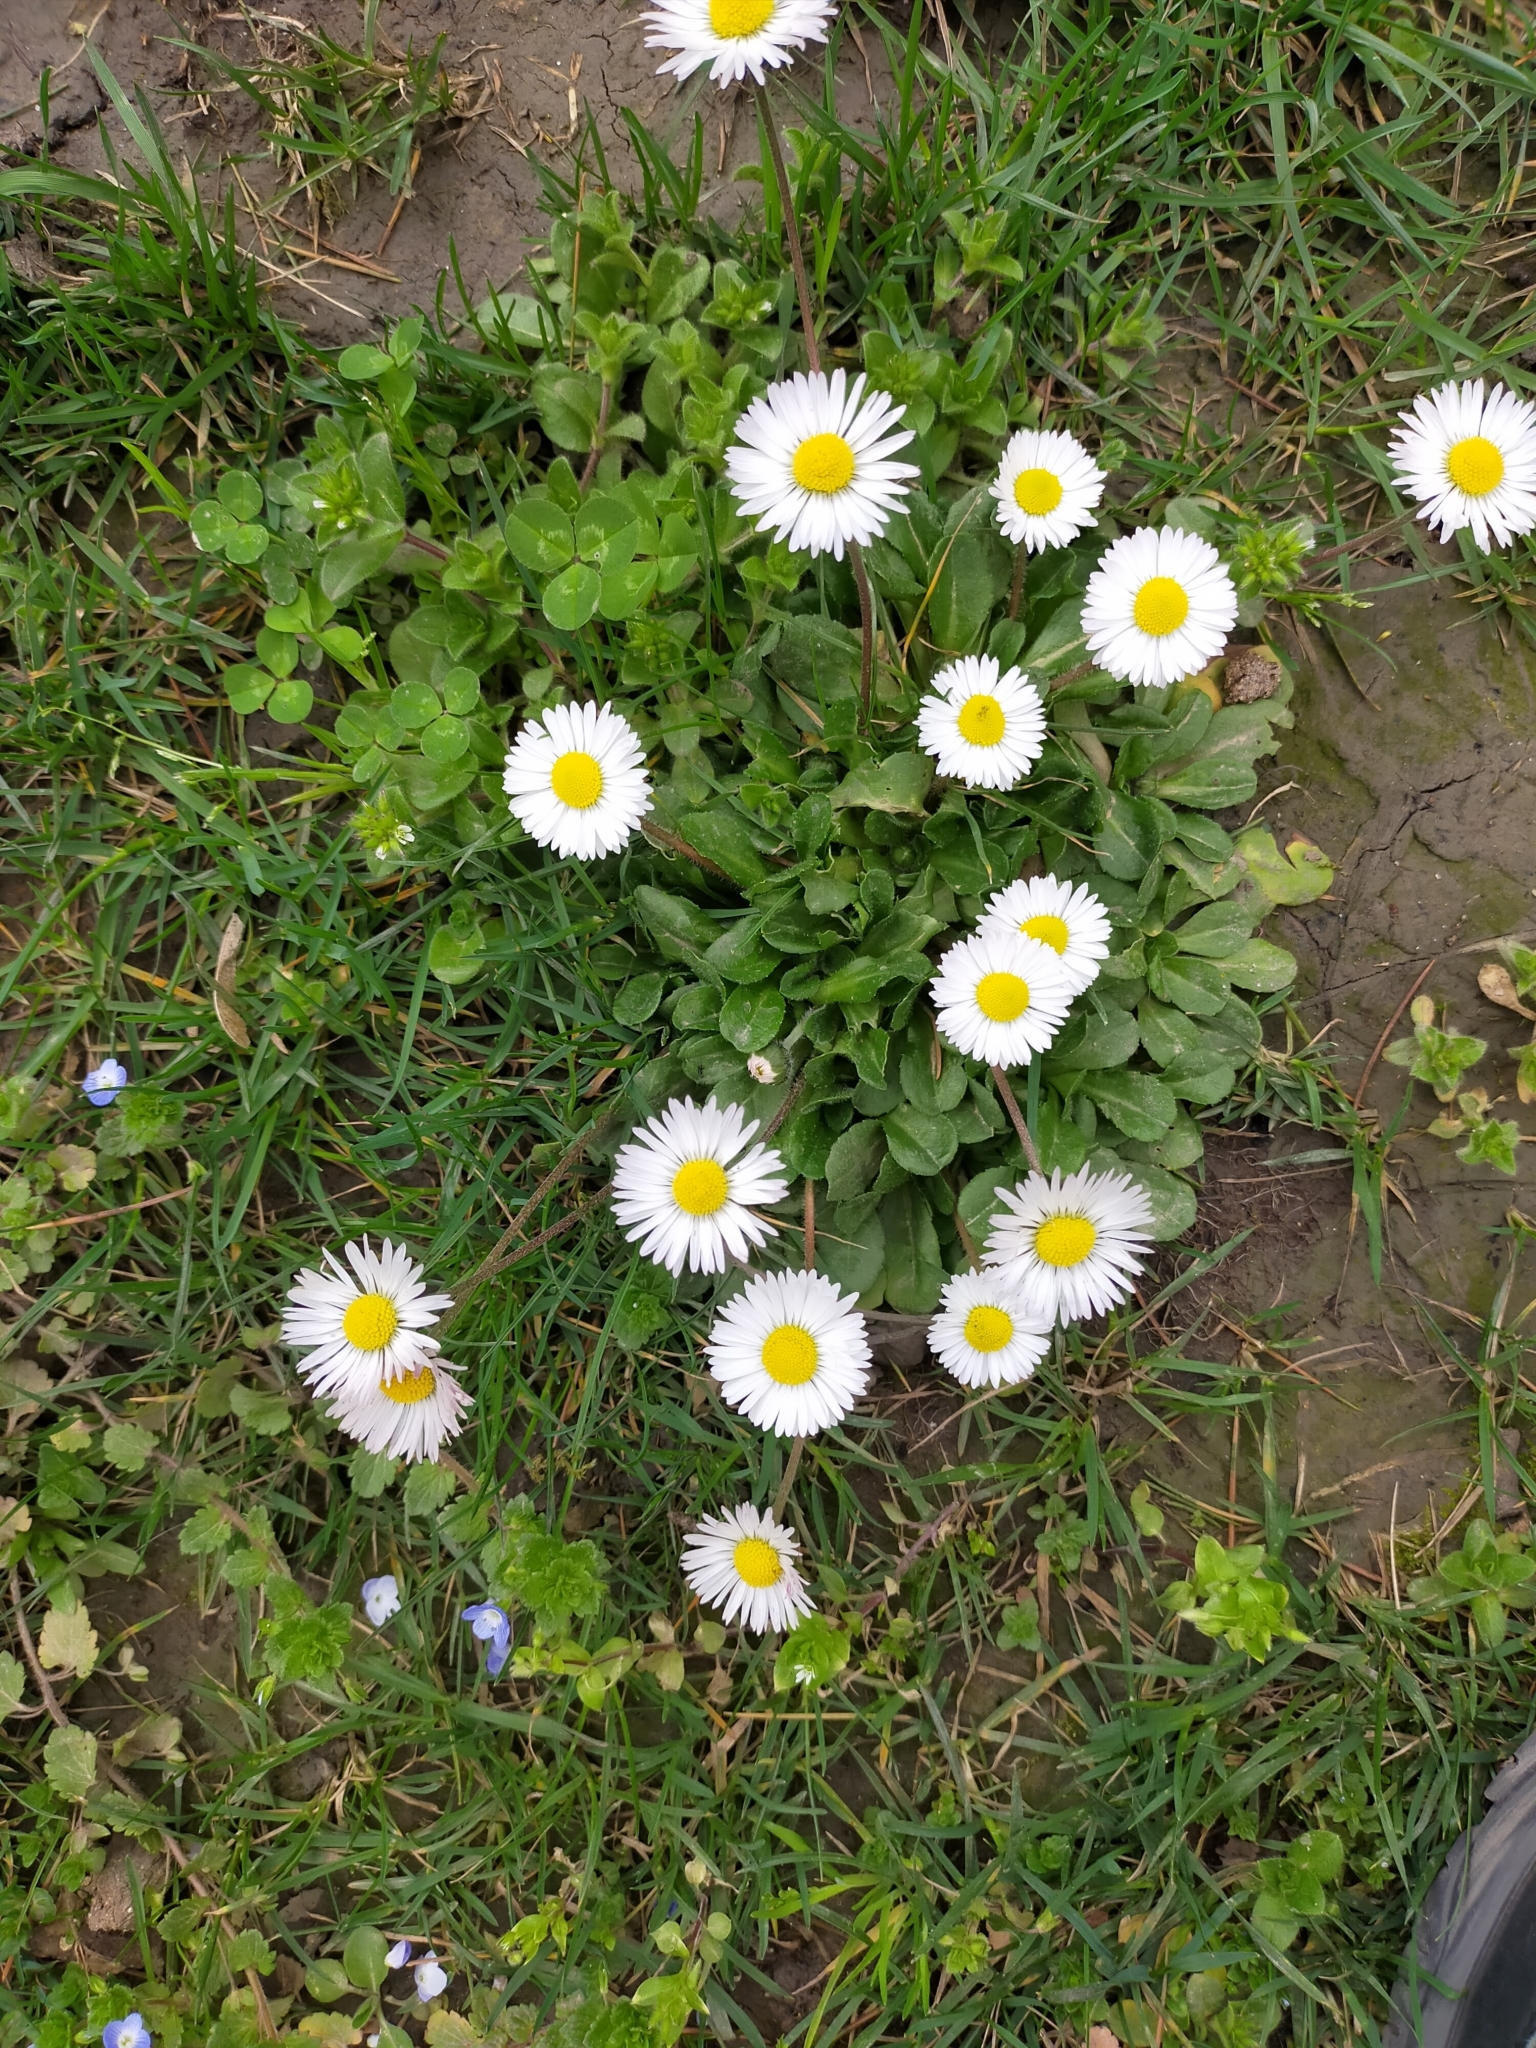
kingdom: Plantae
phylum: Tracheophyta
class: Magnoliopsida
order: Asterales
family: Asteraceae
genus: Bellis
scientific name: Bellis perennis
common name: Lawndaisy
